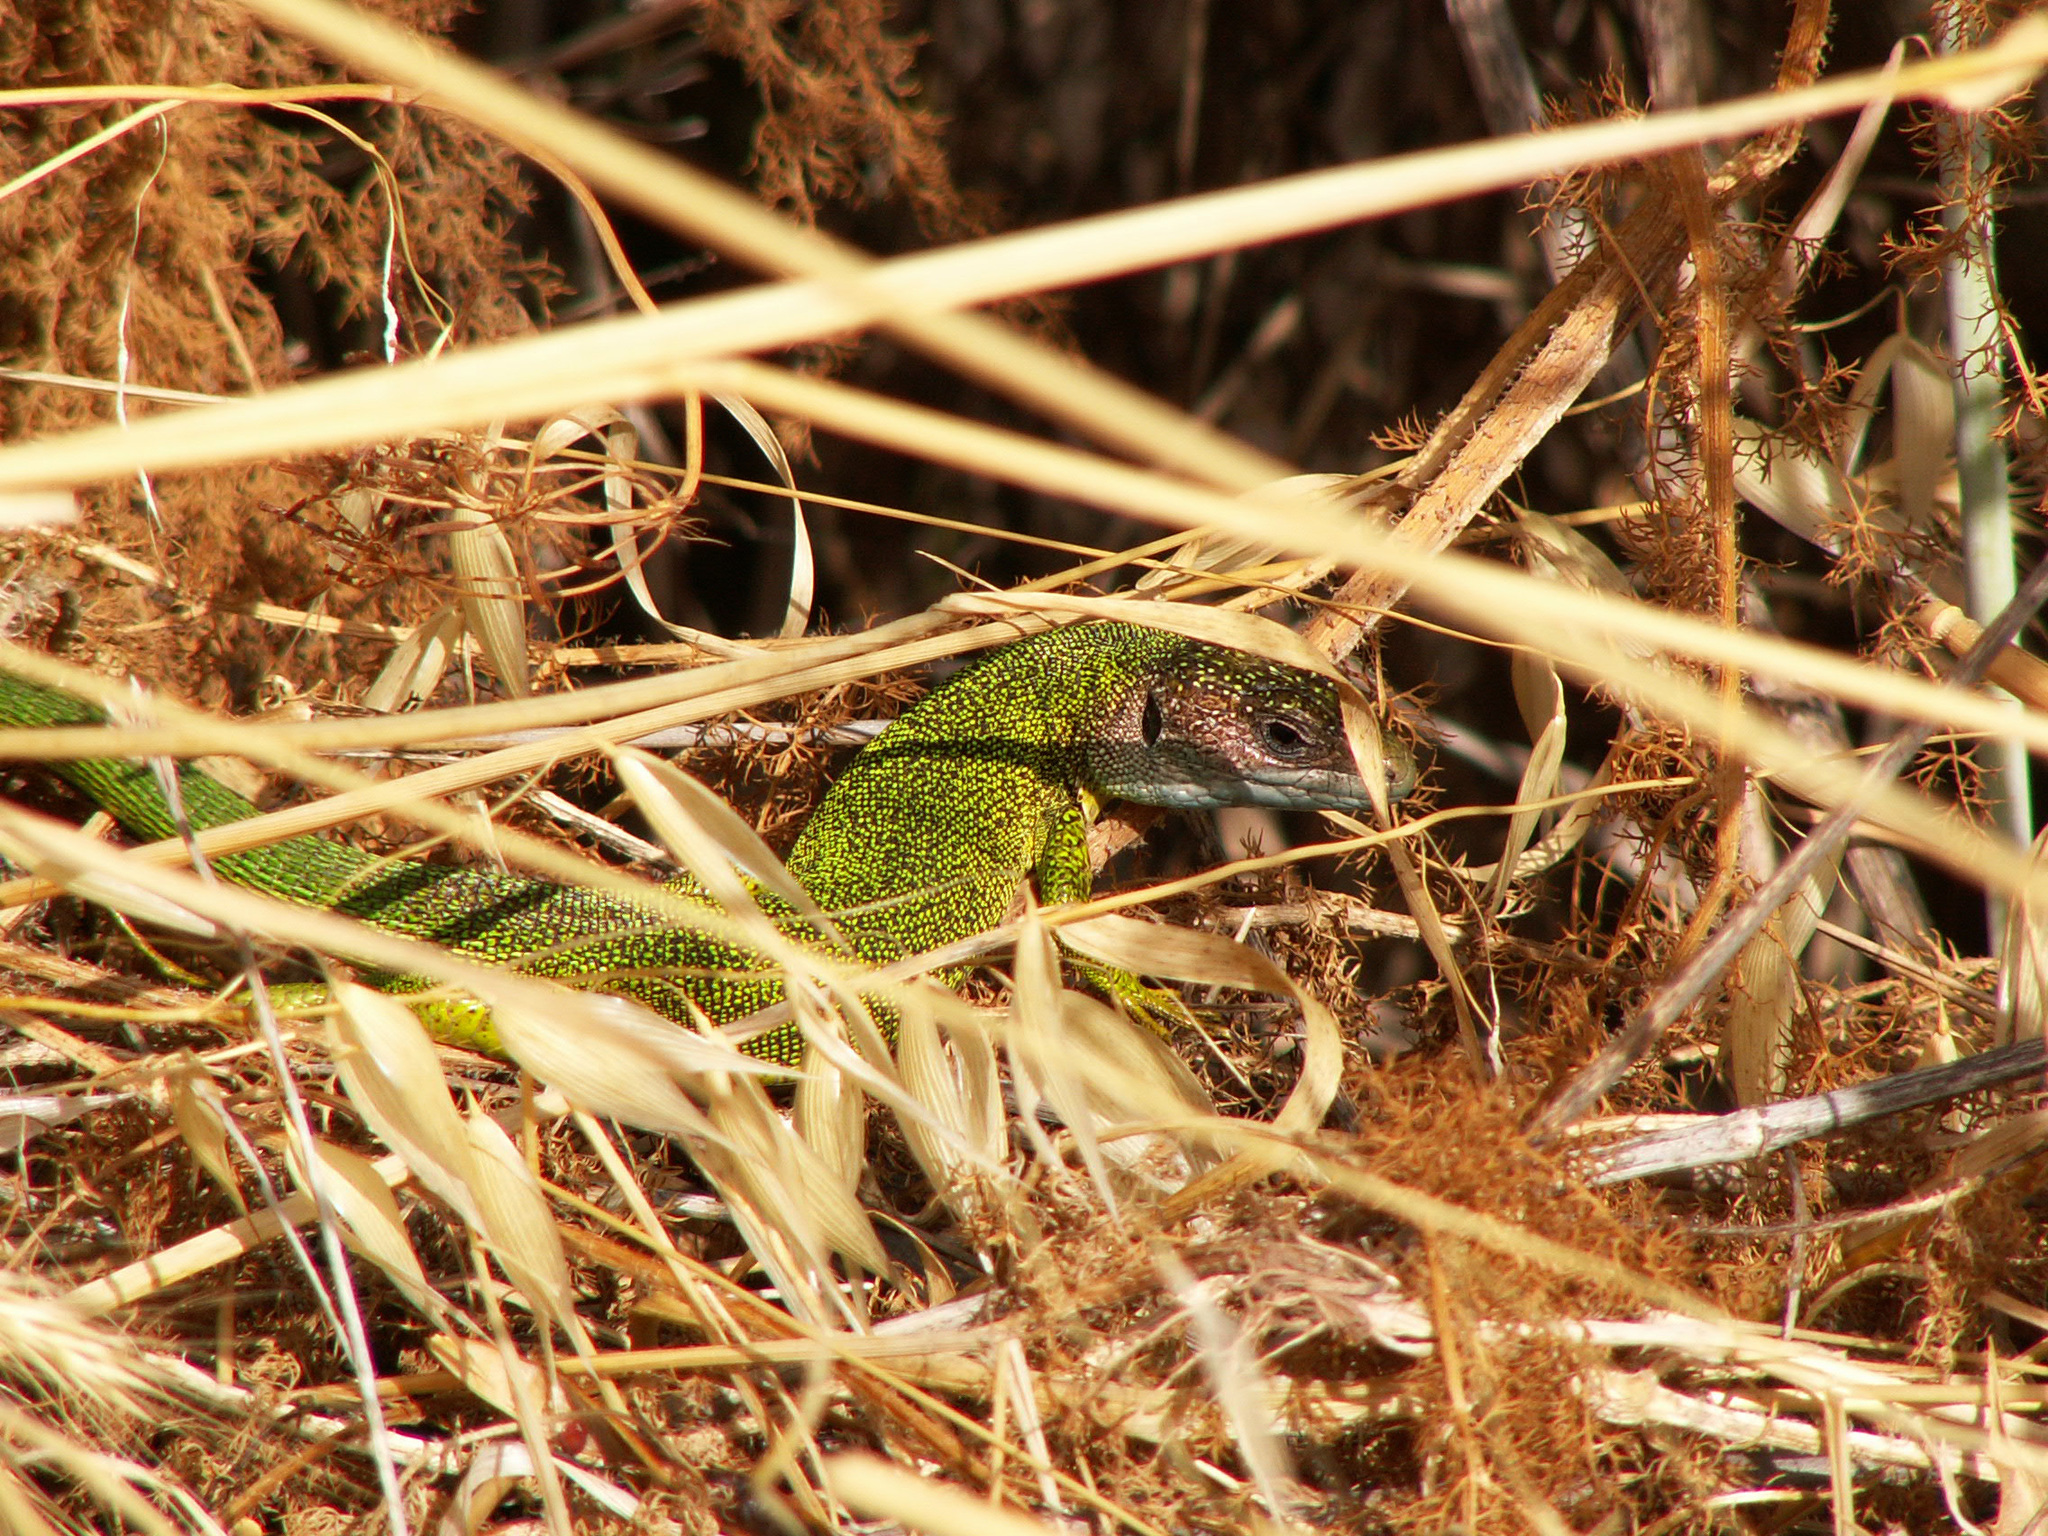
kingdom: Animalia
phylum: Chordata
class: Squamata
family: Lacertidae
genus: Lacerta
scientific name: Lacerta bilineata
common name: Western green lizard
